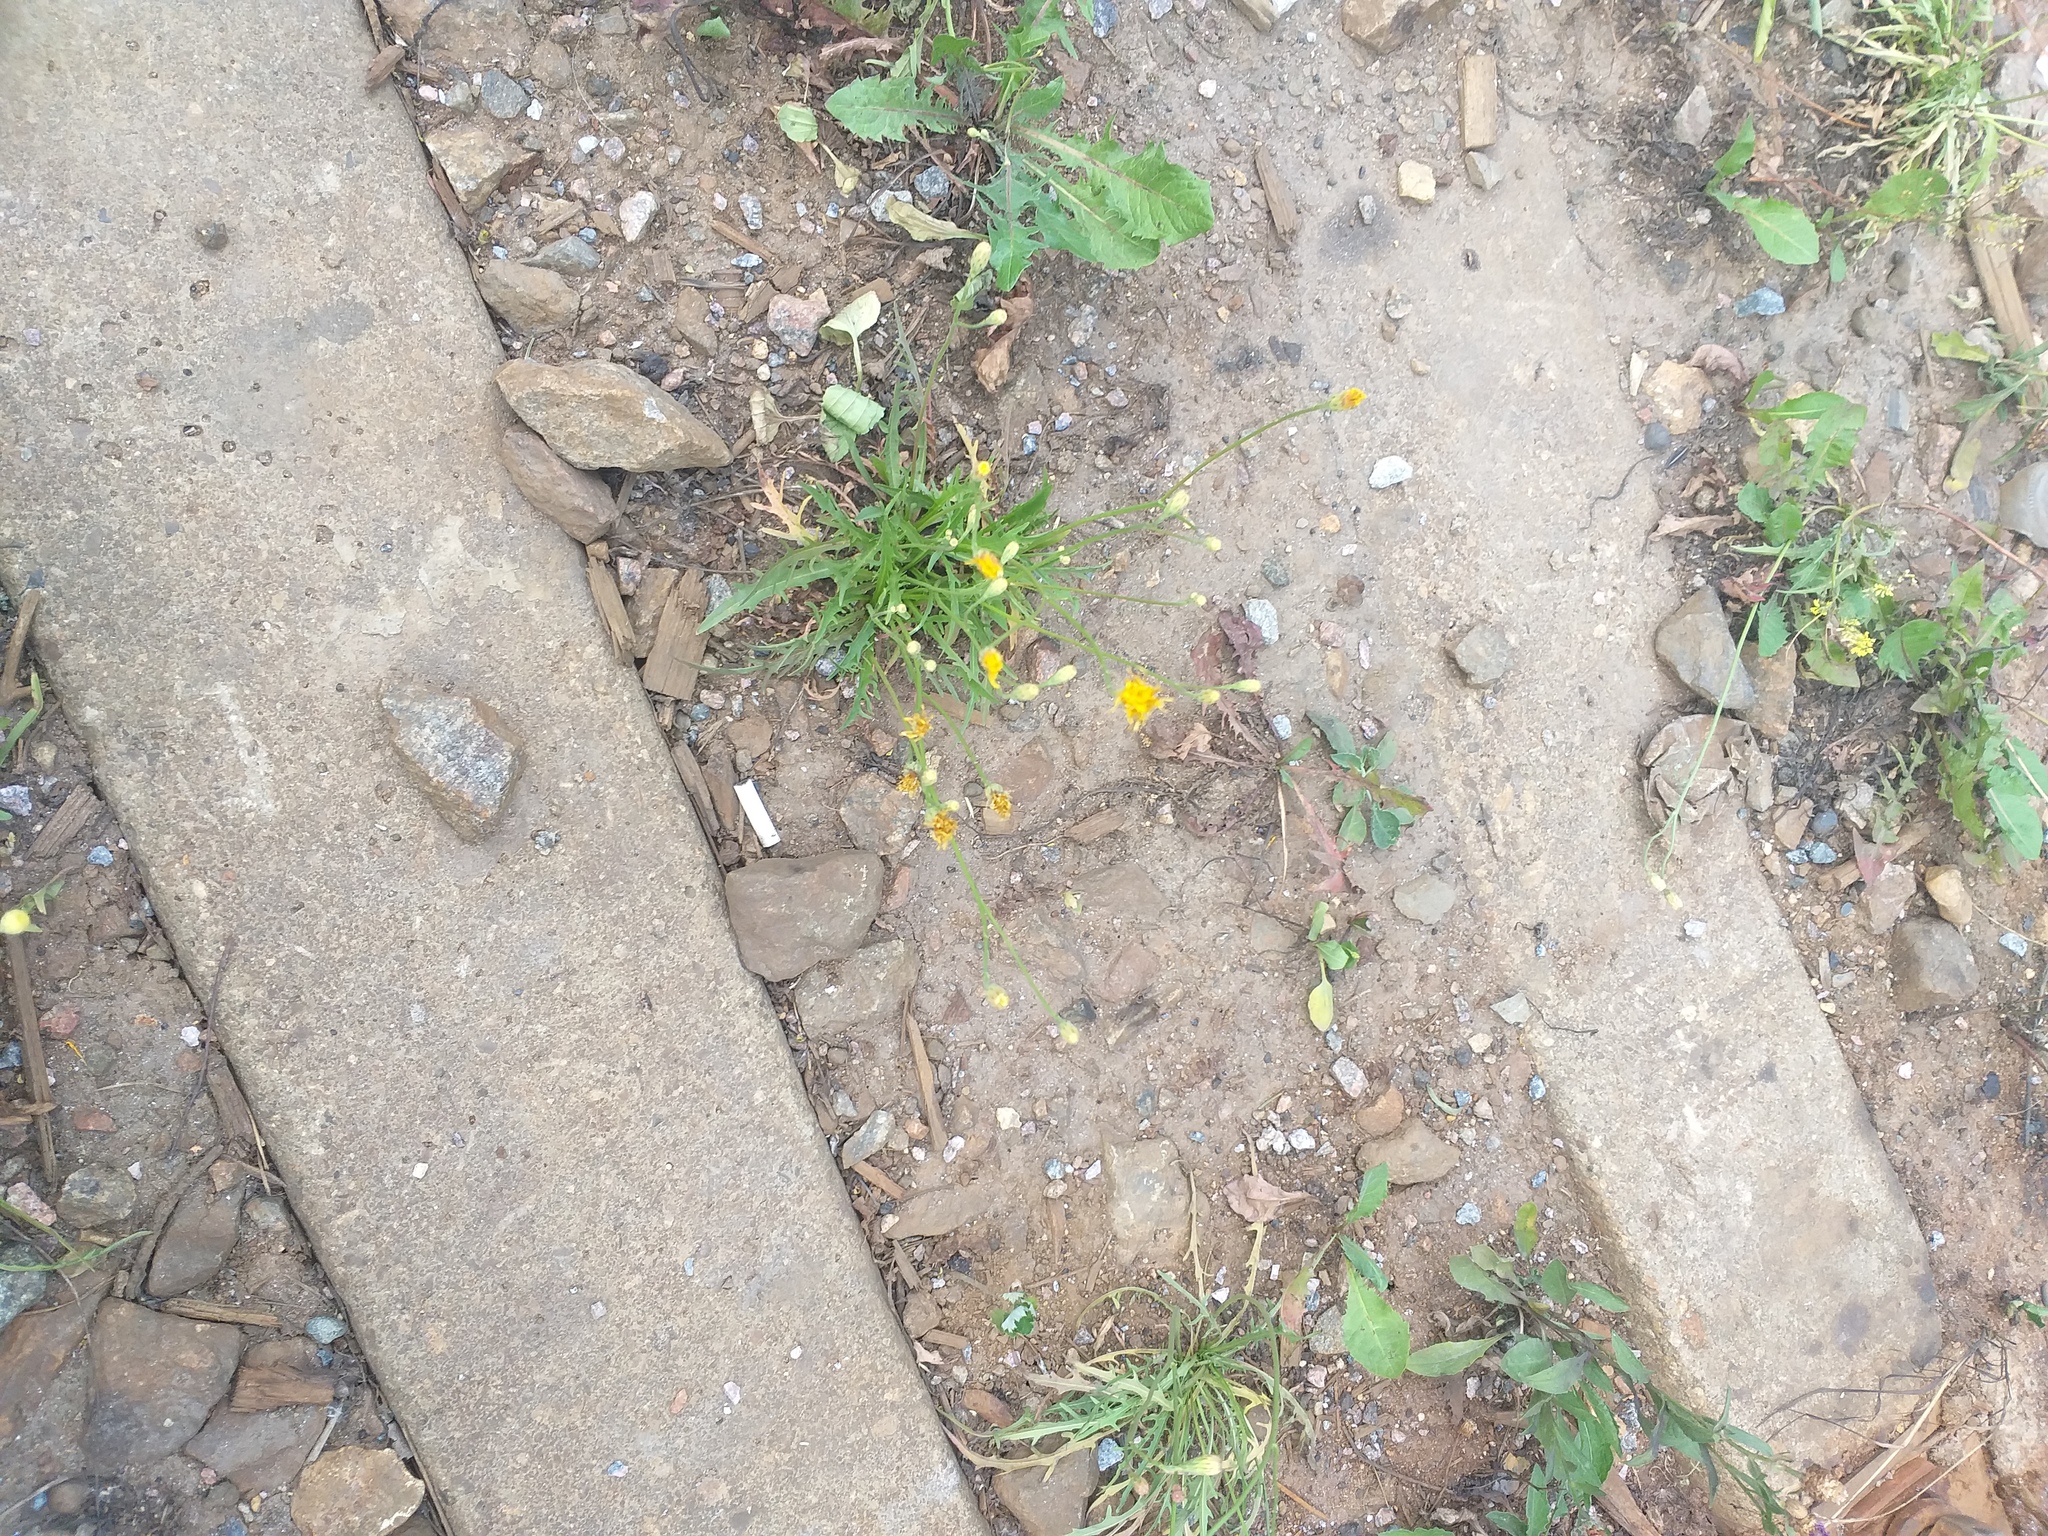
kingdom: Plantae
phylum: Tracheophyta
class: Magnoliopsida
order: Asterales
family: Asteraceae
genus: Scorzoneroides
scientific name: Scorzoneroides autumnalis
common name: Autumn hawkbit
